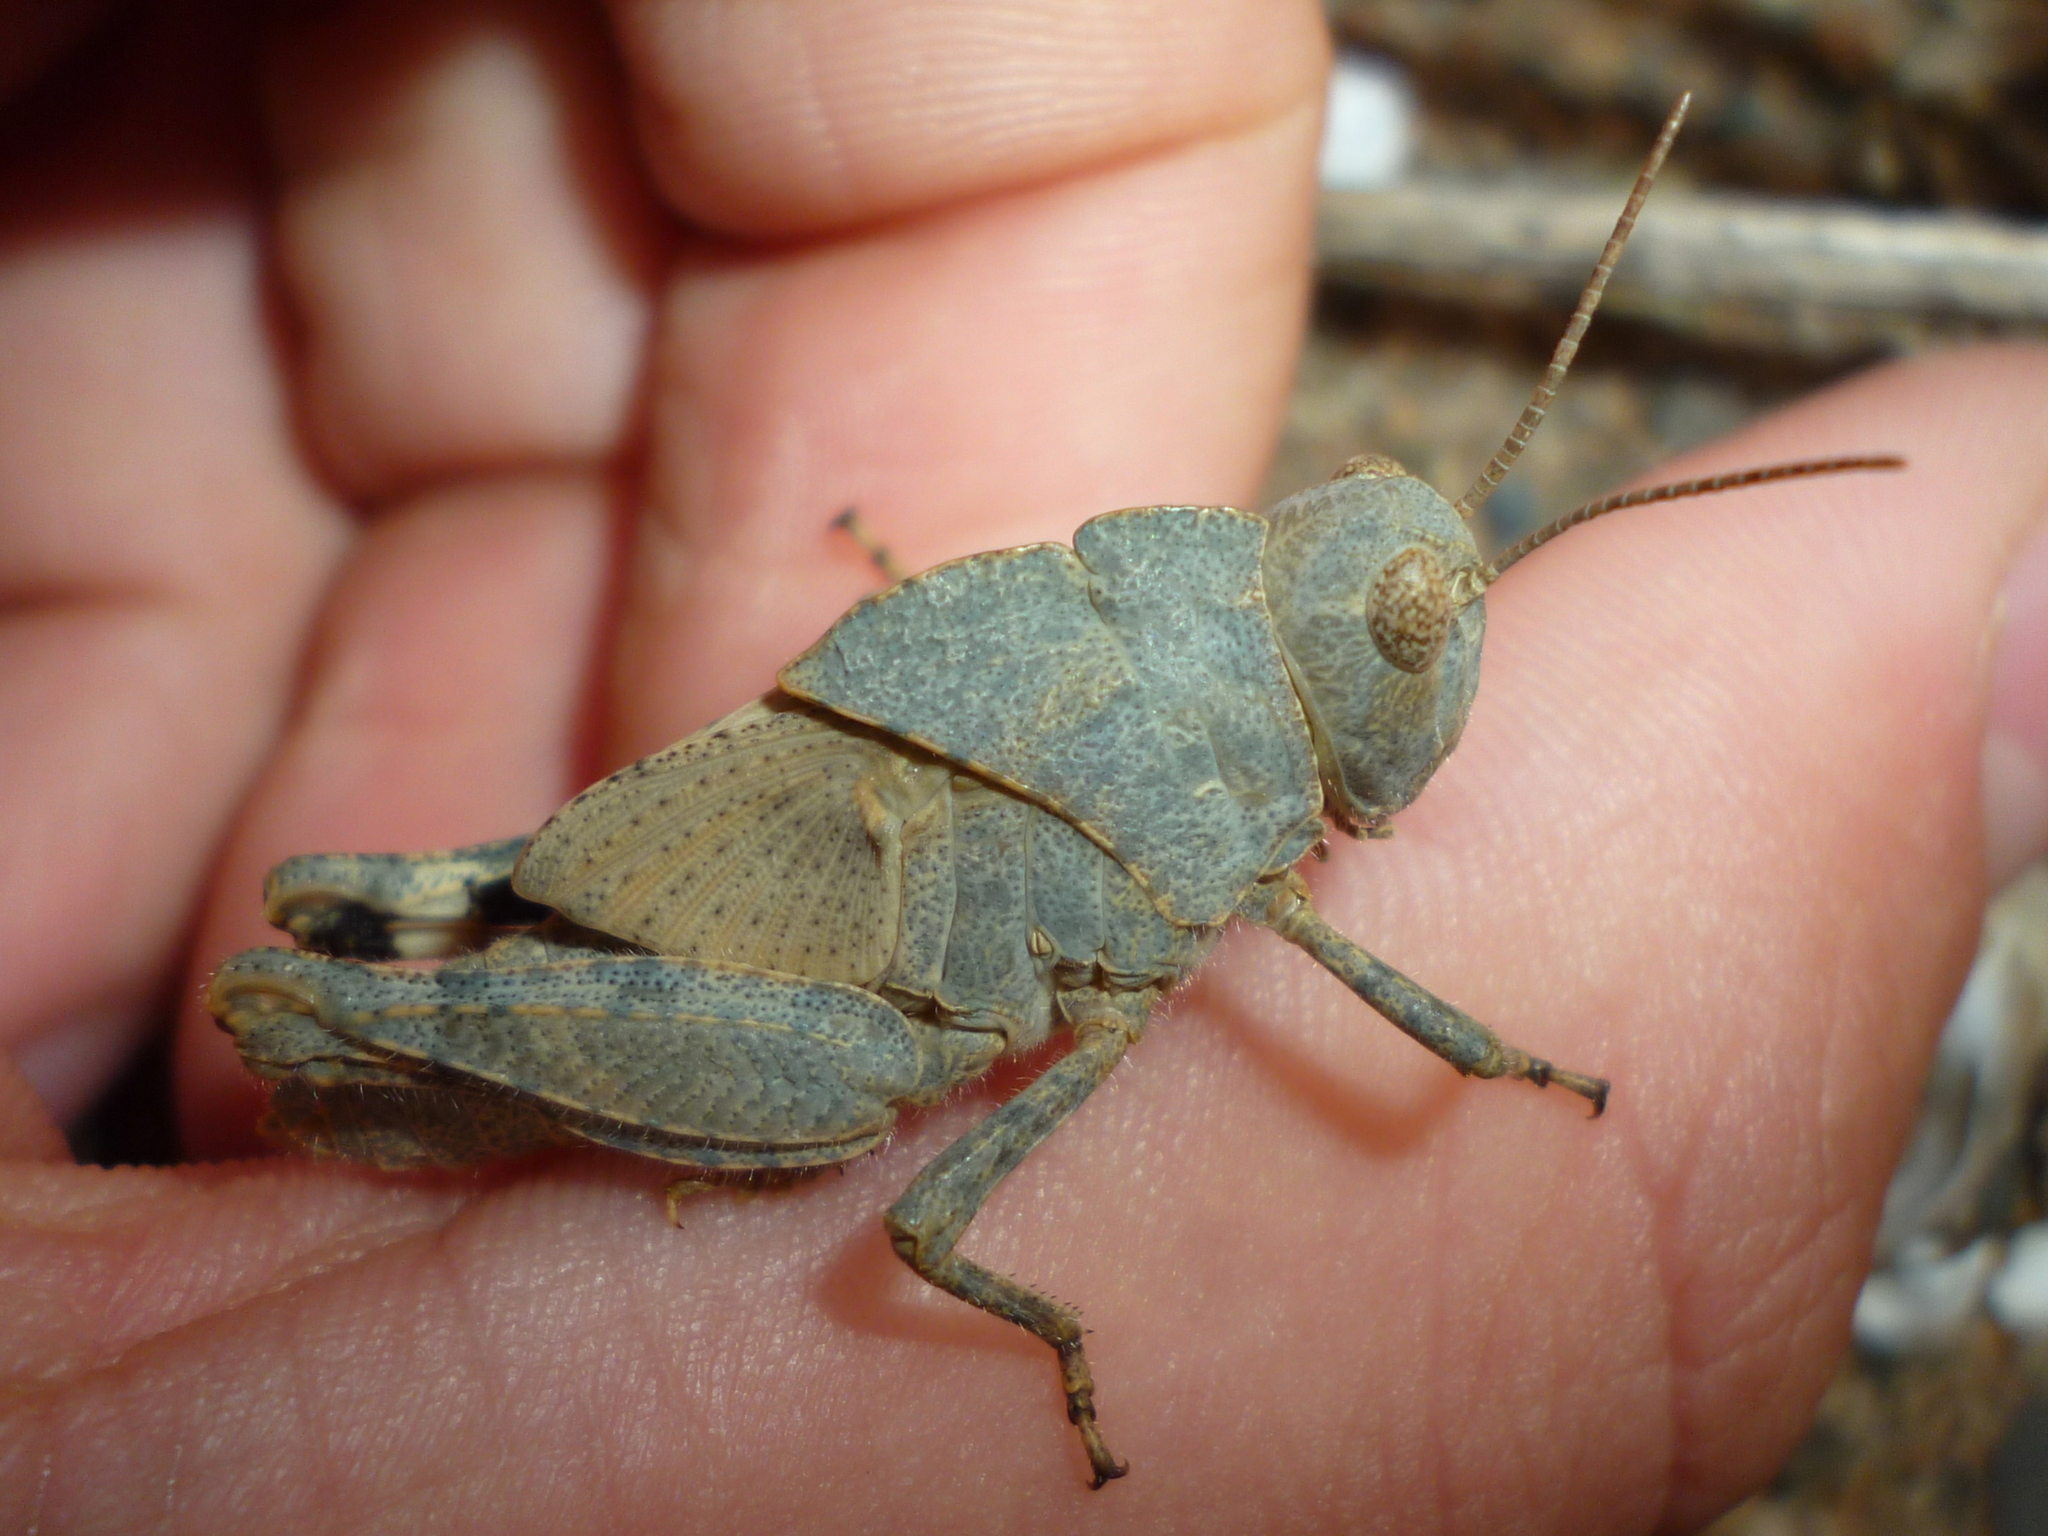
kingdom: Animalia
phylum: Arthropoda
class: Insecta
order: Orthoptera
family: Acrididae
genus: Dissosteira
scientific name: Dissosteira carolina
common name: Carolina grasshopper
